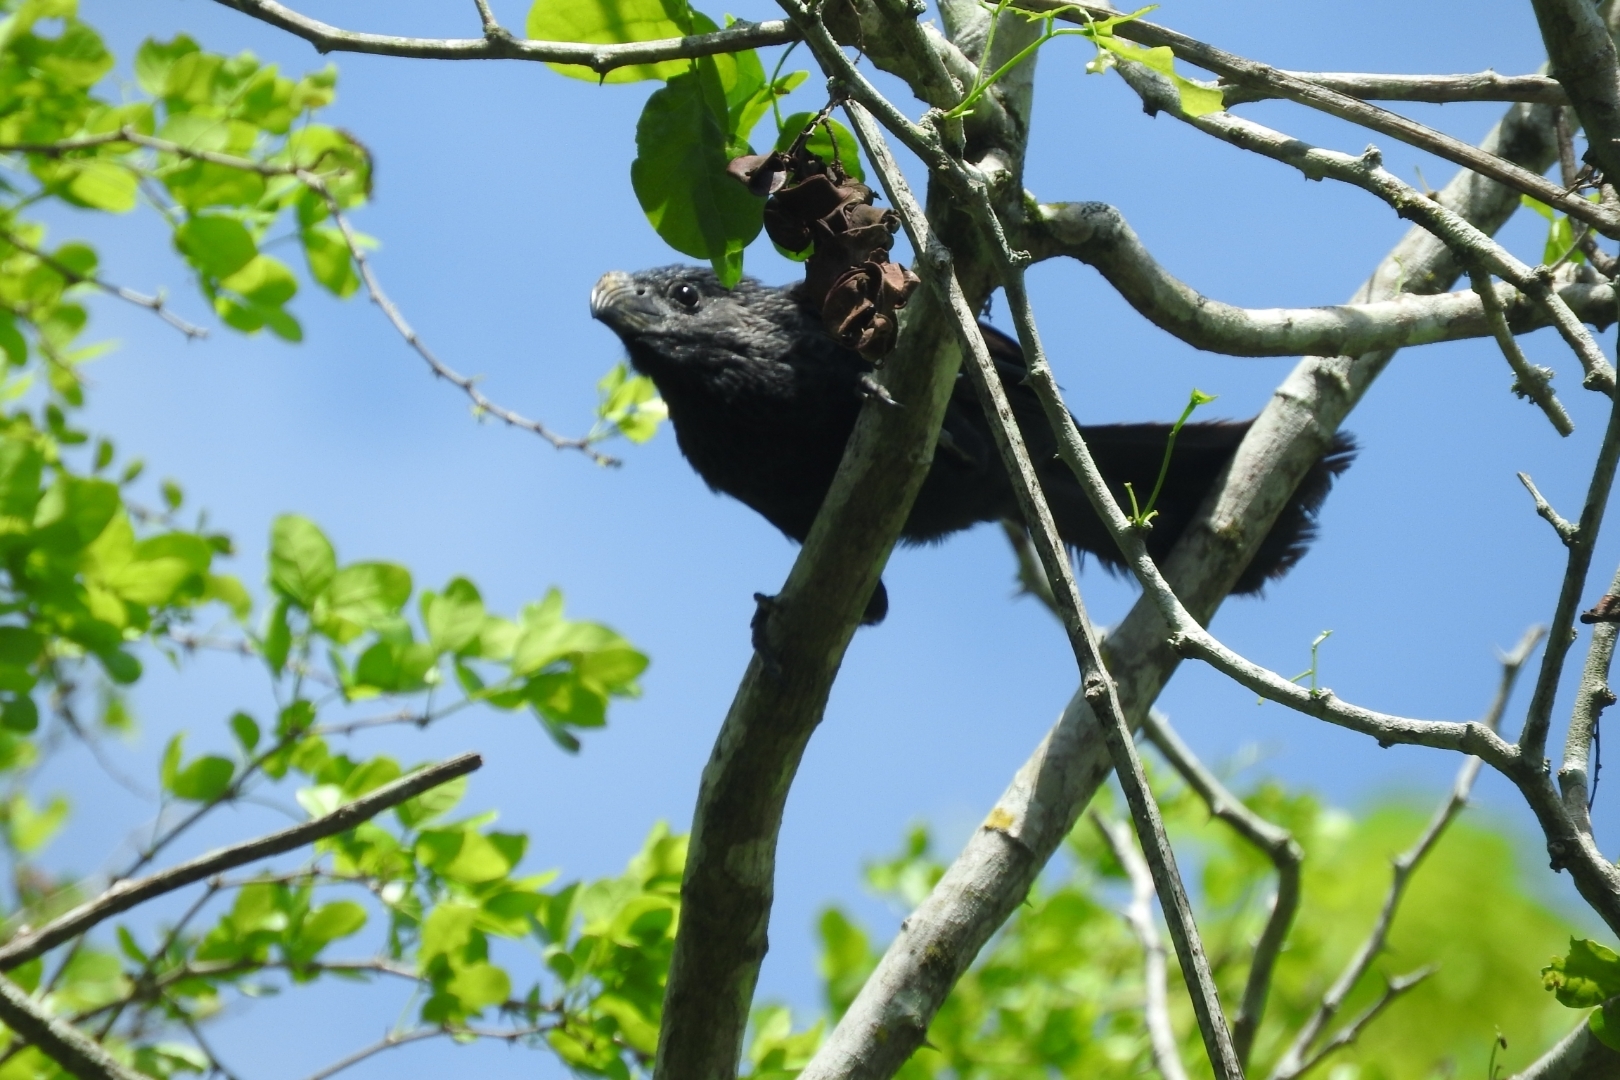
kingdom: Animalia
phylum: Chordata
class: Aves
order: Cuculiformes
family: Cuculidae
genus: Crotophaga
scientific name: Crotophaga sulcirostris
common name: Groove-billed ani
